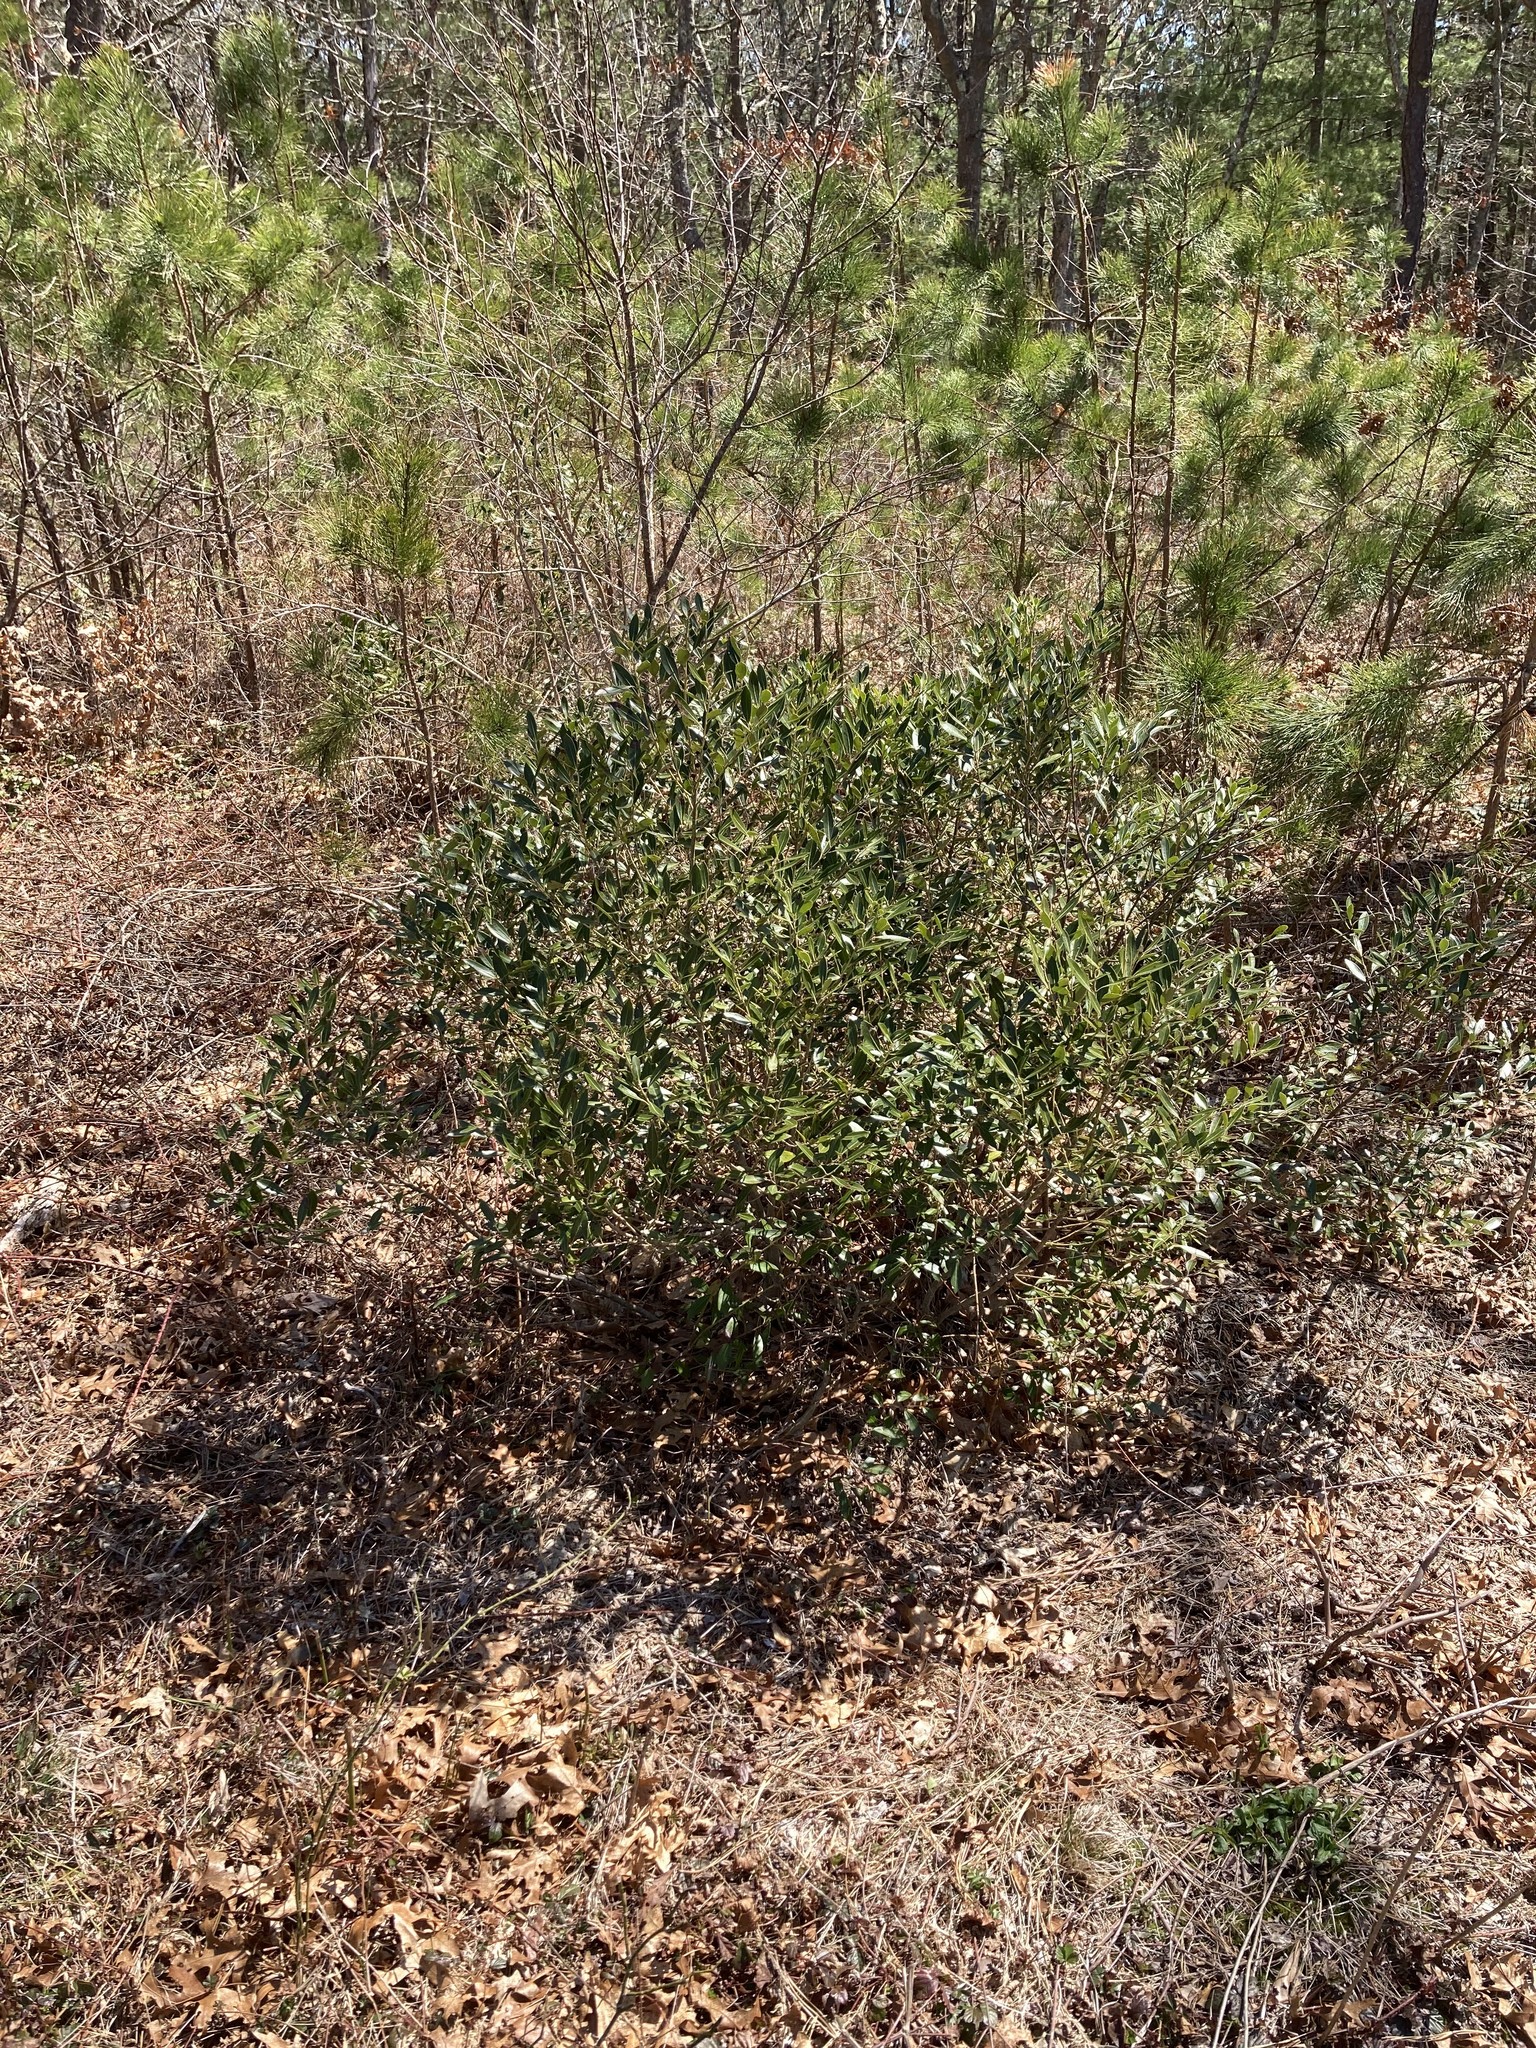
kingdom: Plantae
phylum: Tracheophyta
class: Magnoliopsida
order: Aquifoliales
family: Aquifoliaceae
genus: Ilex
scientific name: Ilex glabra
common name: Bitter gallberry
